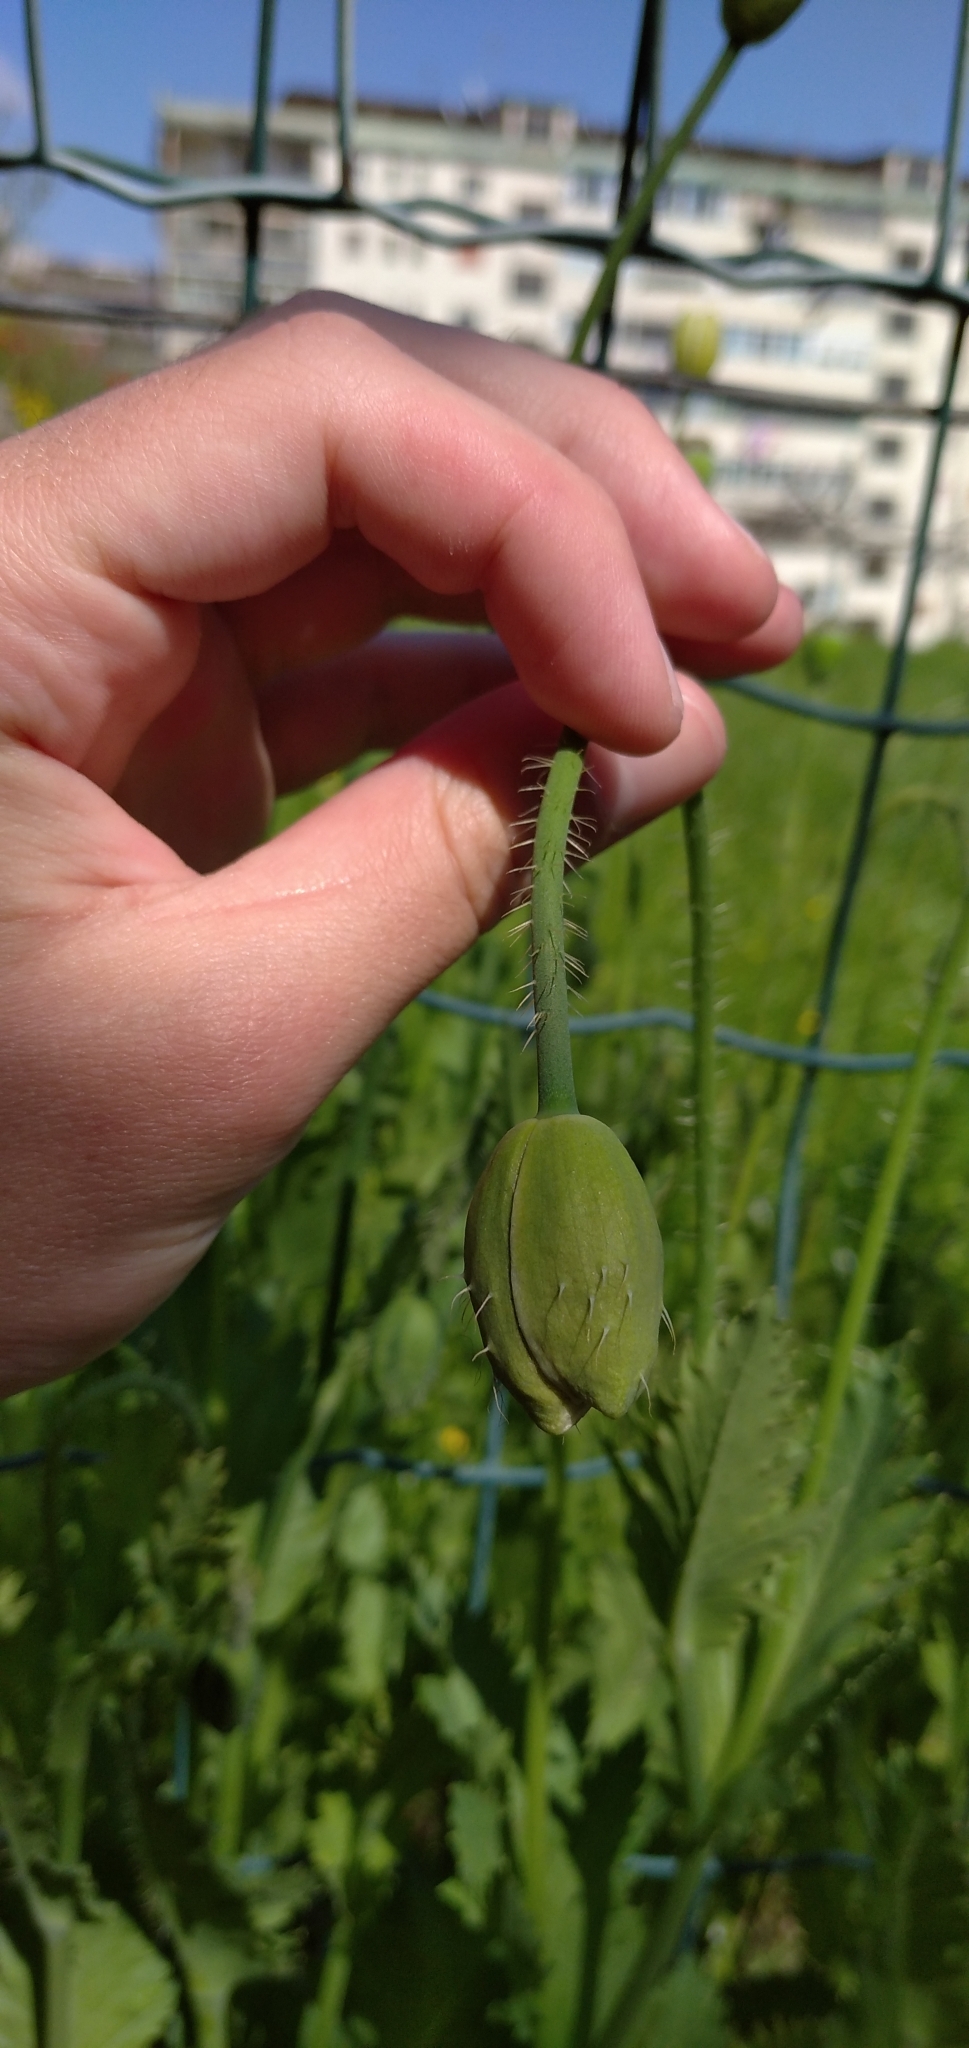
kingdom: Plantae
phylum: Tracheophyta
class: Magnoliopsida
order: Ranunculales
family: Papaveraceae
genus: Papaver
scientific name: Papaver somniferum
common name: Opium poppy
